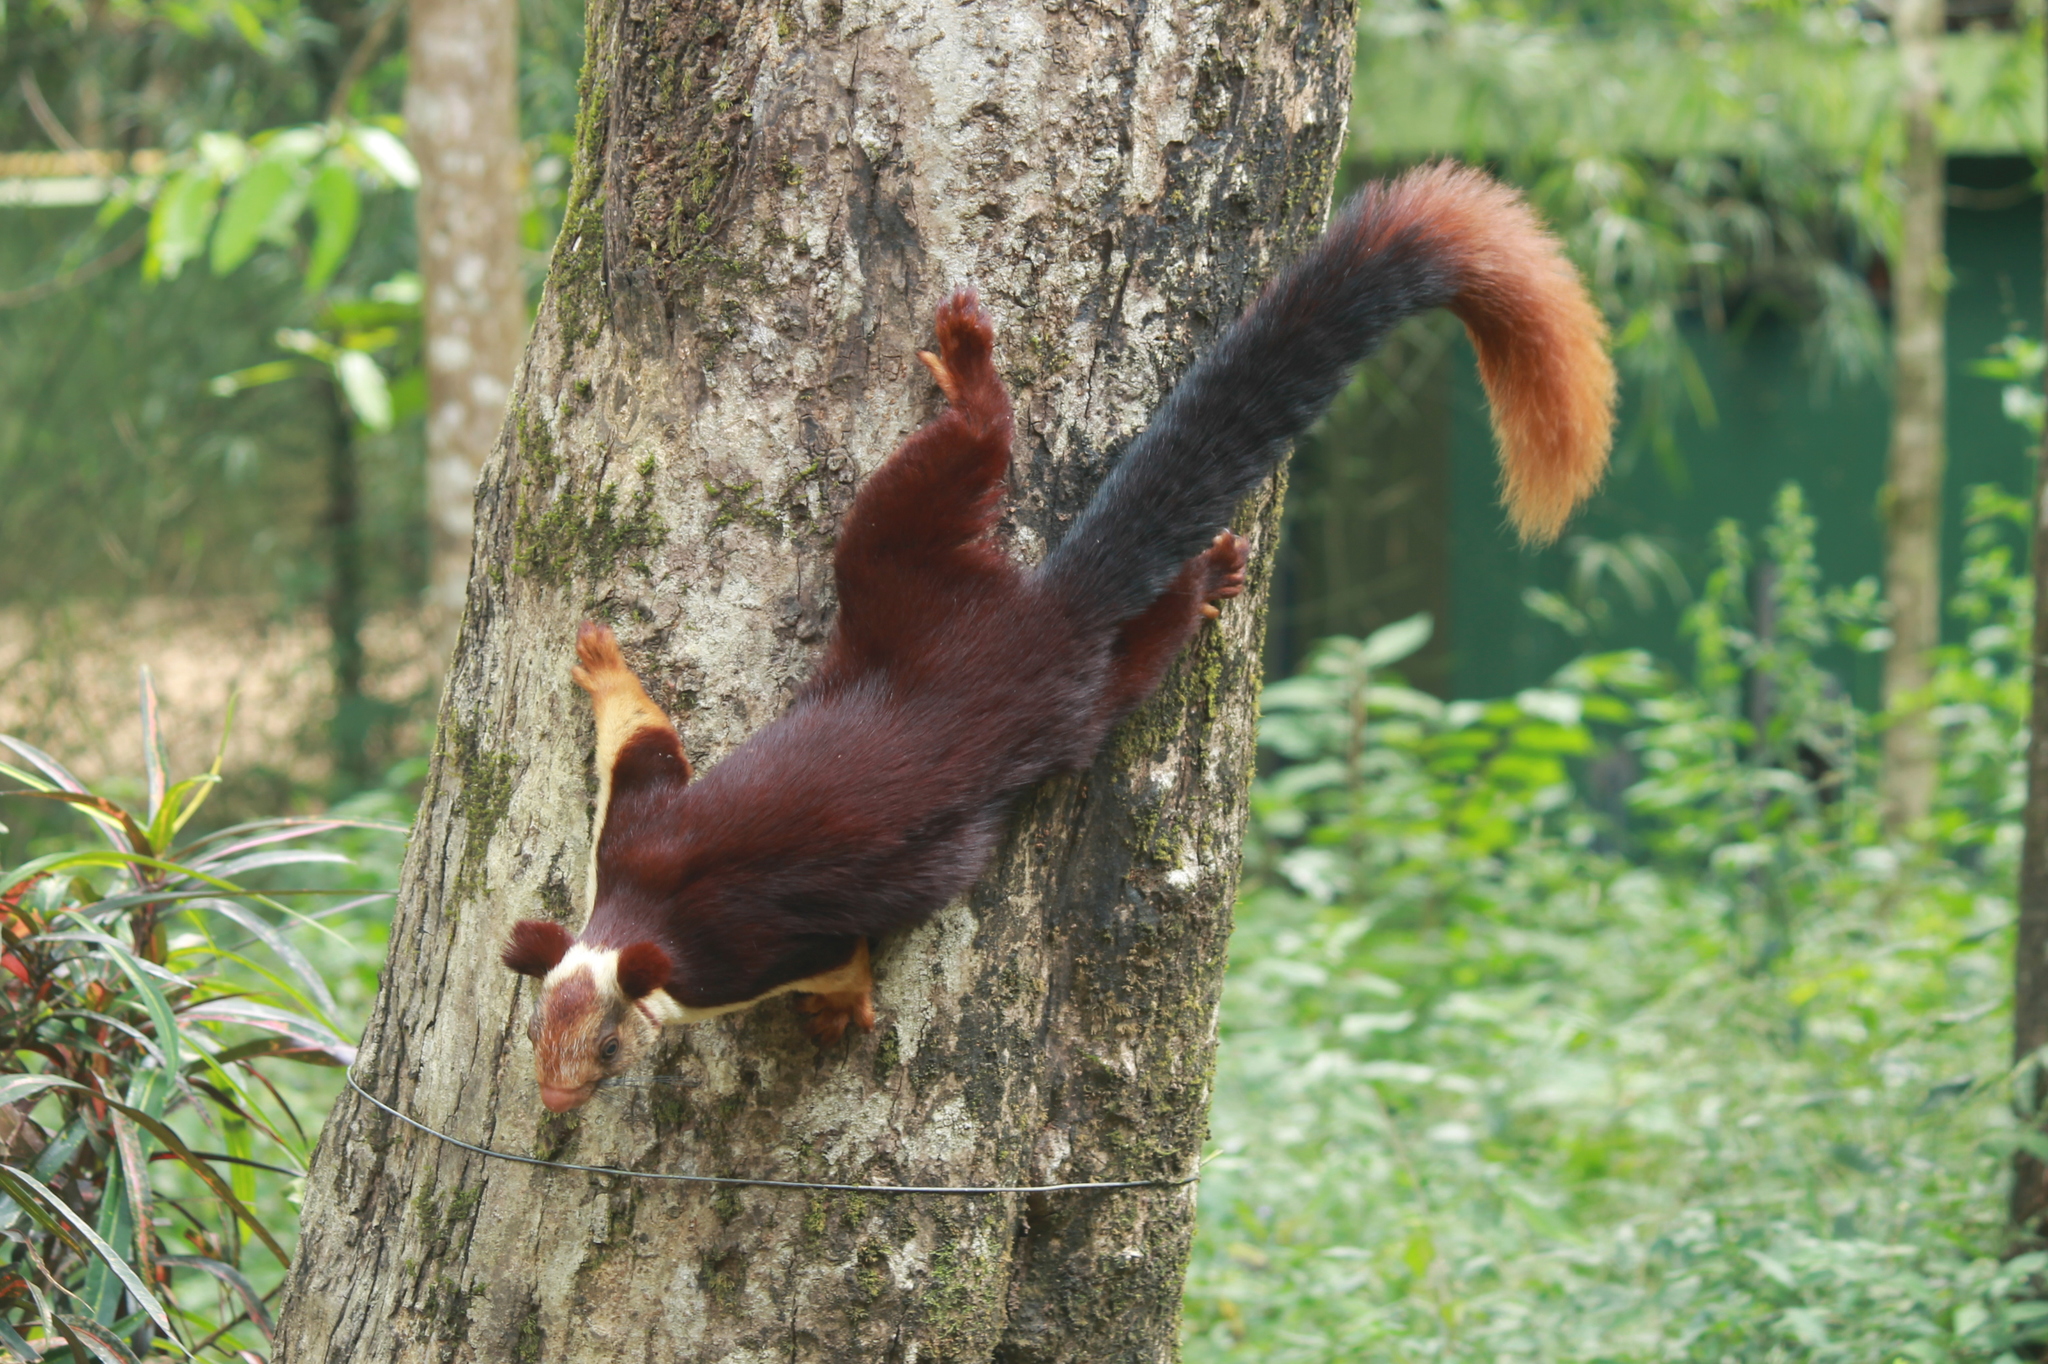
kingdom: Animalia
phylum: Chordata
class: Mammalia
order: Rodentia
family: Sciuridae
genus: Ratufa
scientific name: Ratufa indica
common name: Indian giant squirrel
